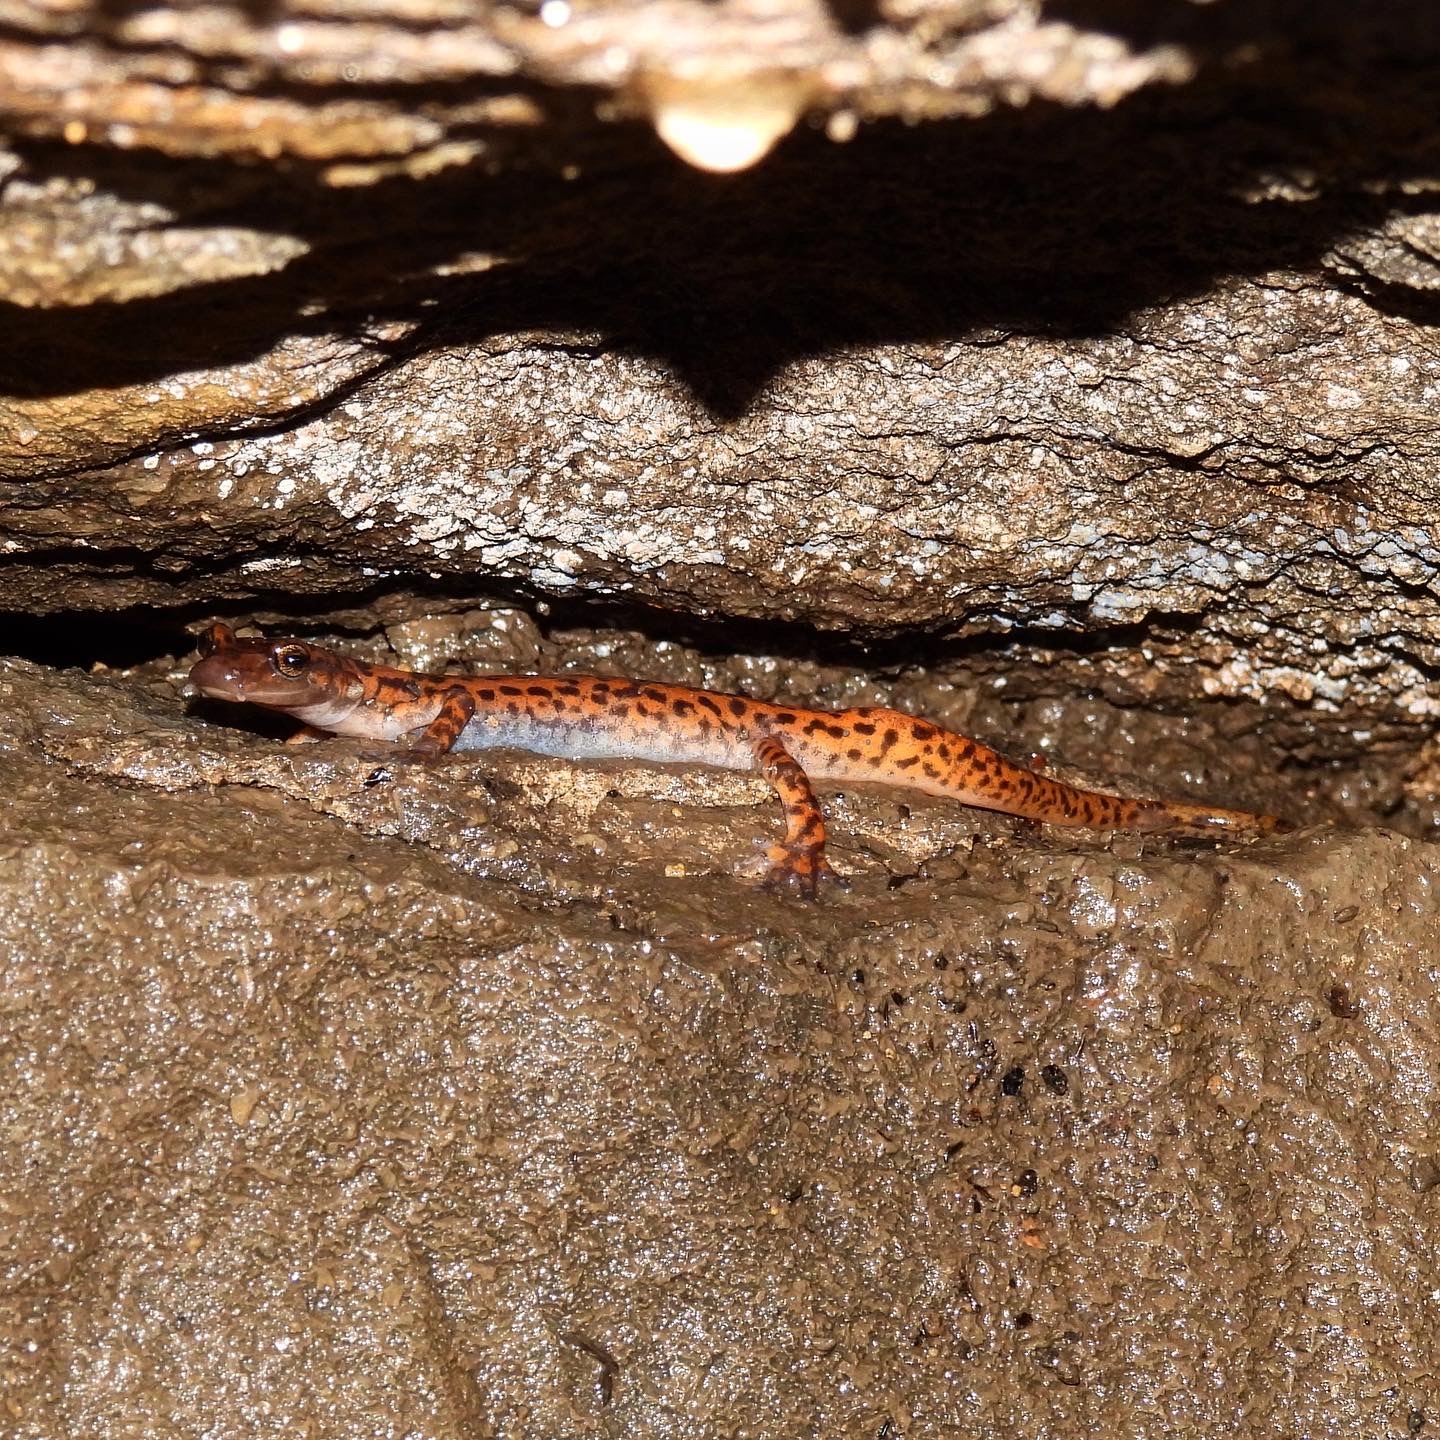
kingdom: Animalia
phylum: Chordata
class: Amphibia
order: Caudata
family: Plethodontidae
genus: Eurycea
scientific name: Eurycea lucifuga
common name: Cave salamander
